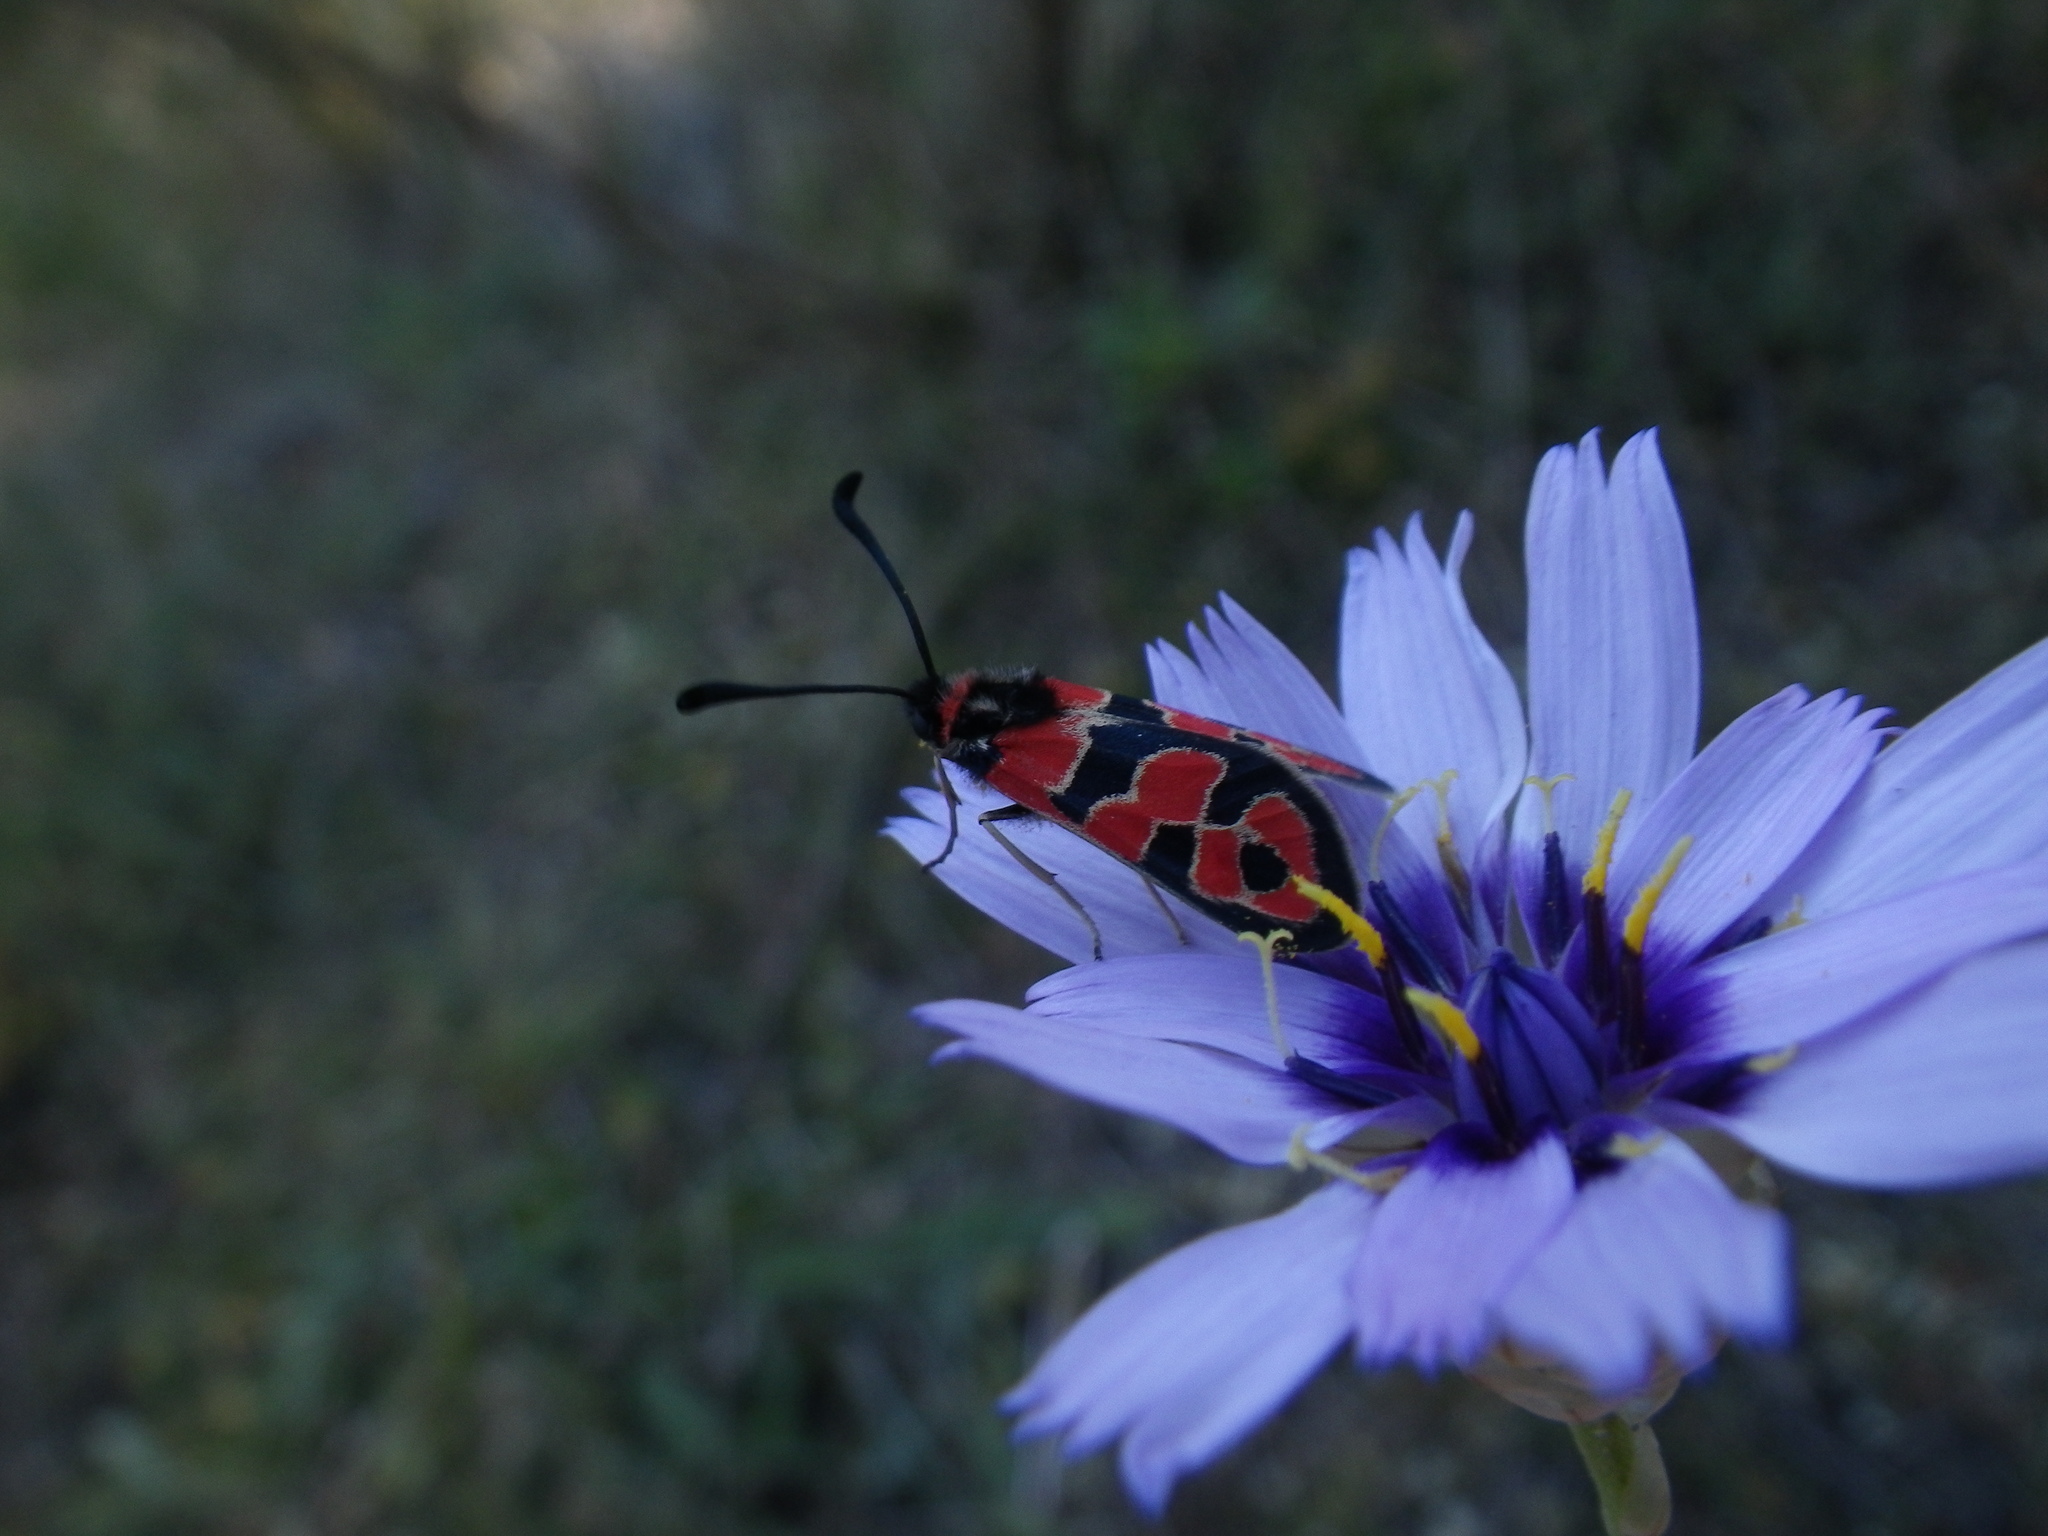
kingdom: Animalia
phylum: Arthropoda
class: Insecta
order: Lepidoptera
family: Zygaenidae
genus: Zygaena
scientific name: Zygaena fausta
